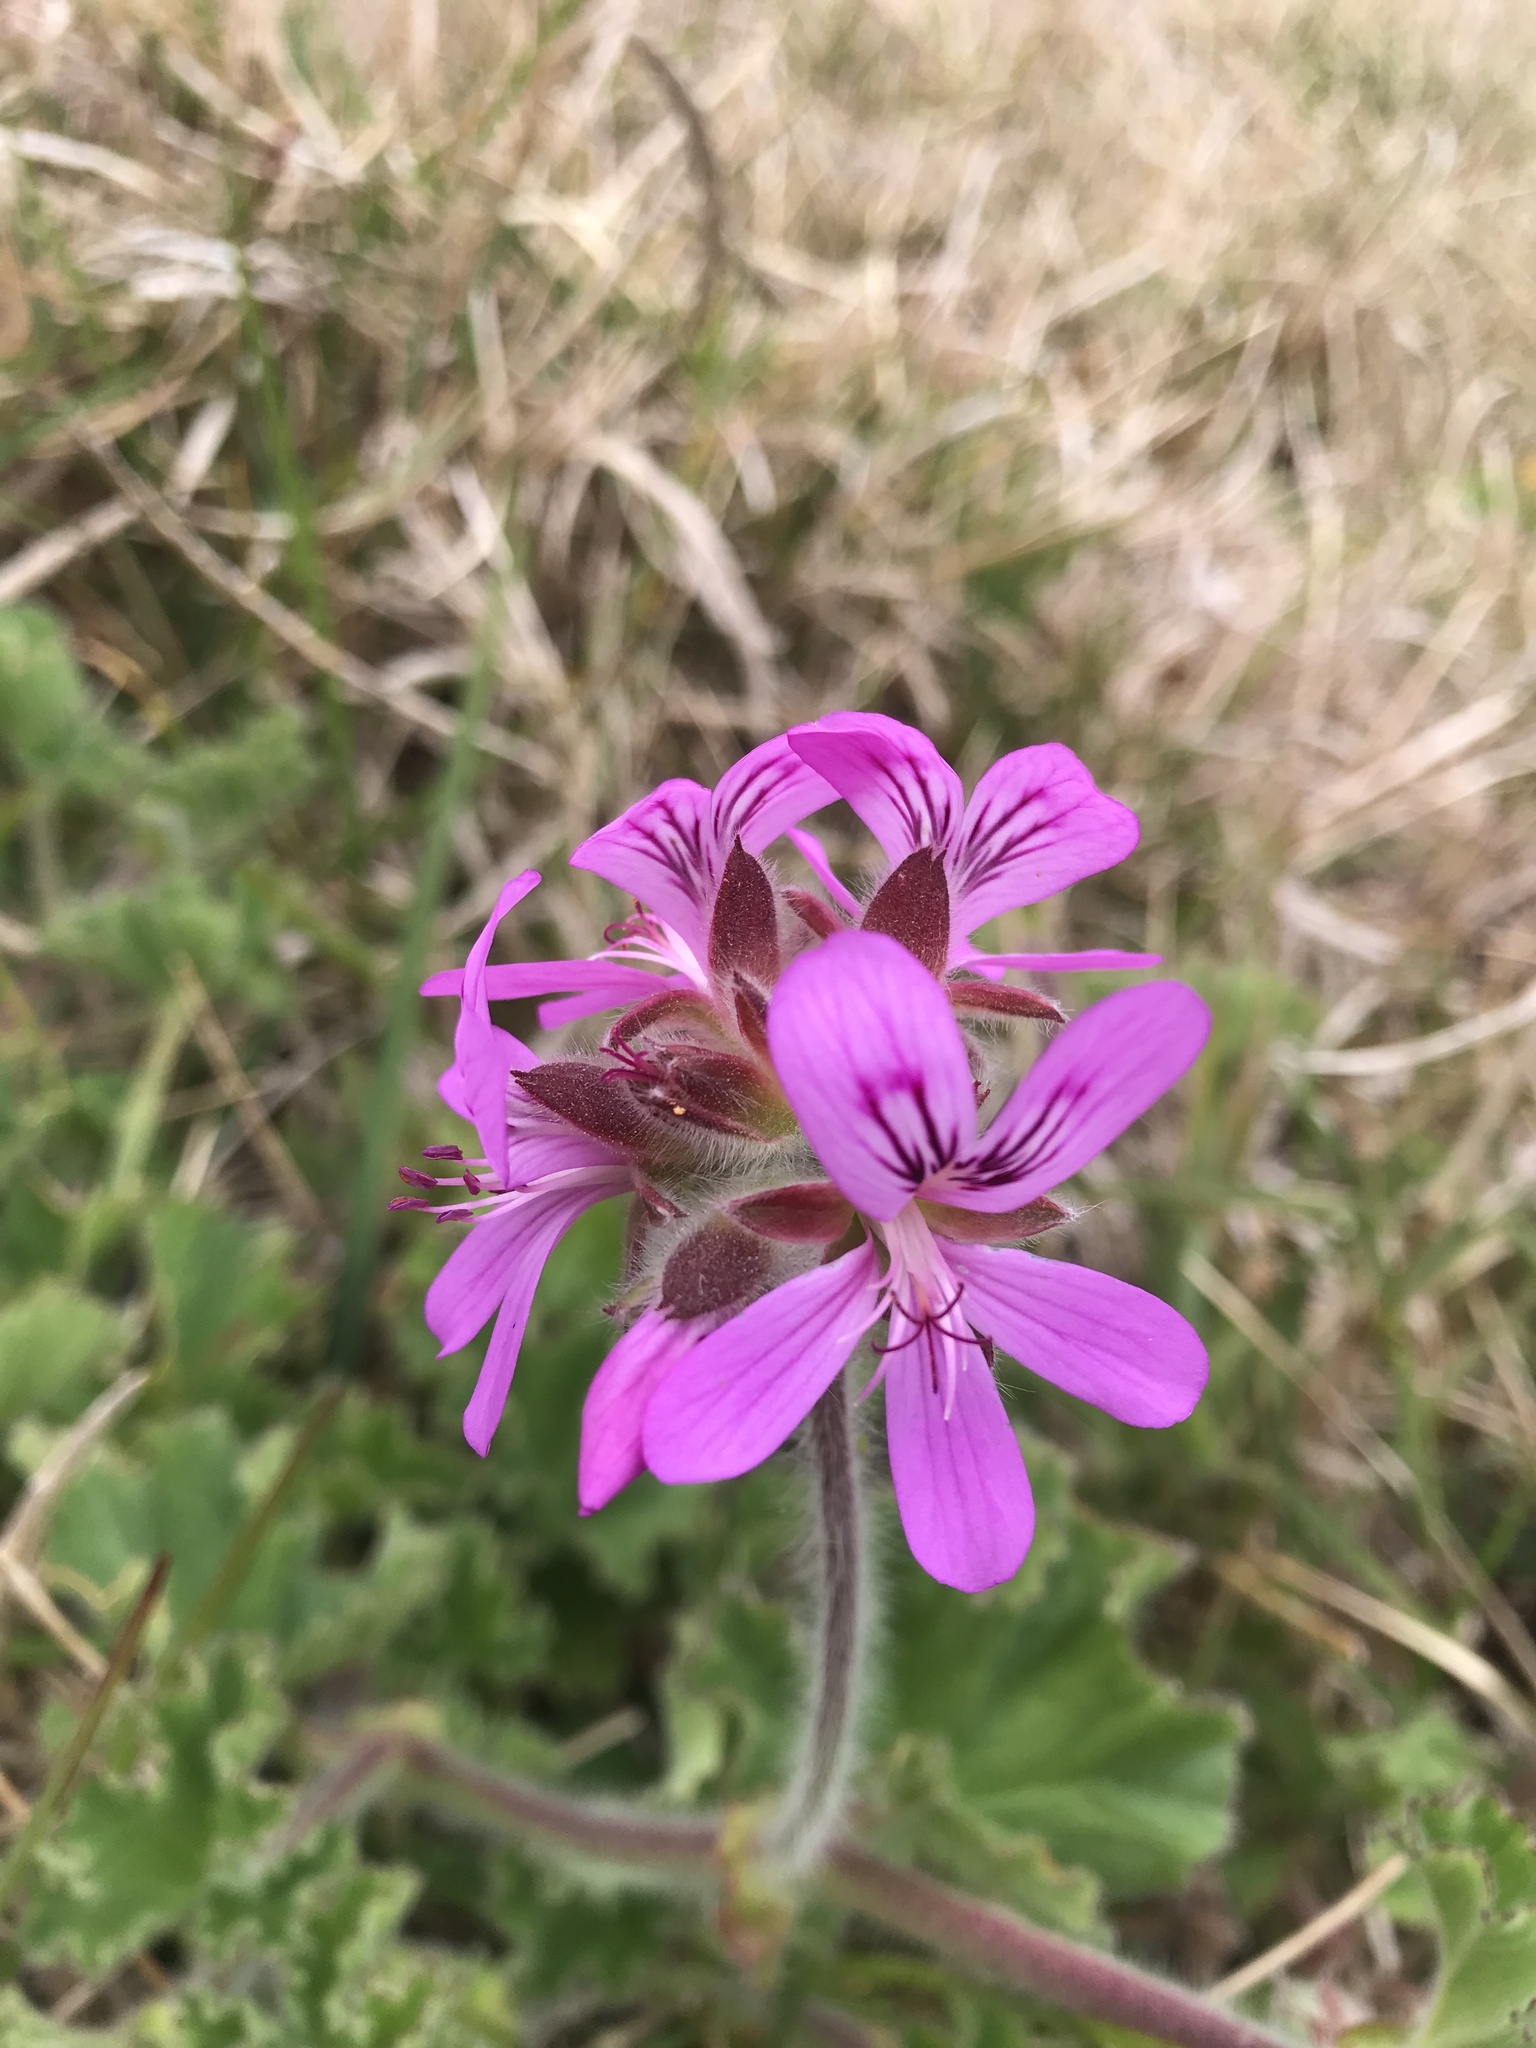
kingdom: Plantae
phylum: Tracheophyta
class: Magnoliopsida
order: Geraniales
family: Geraniaceae
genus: Pelargonium
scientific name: Pelargonium capitatum
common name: Rose scented geranium
